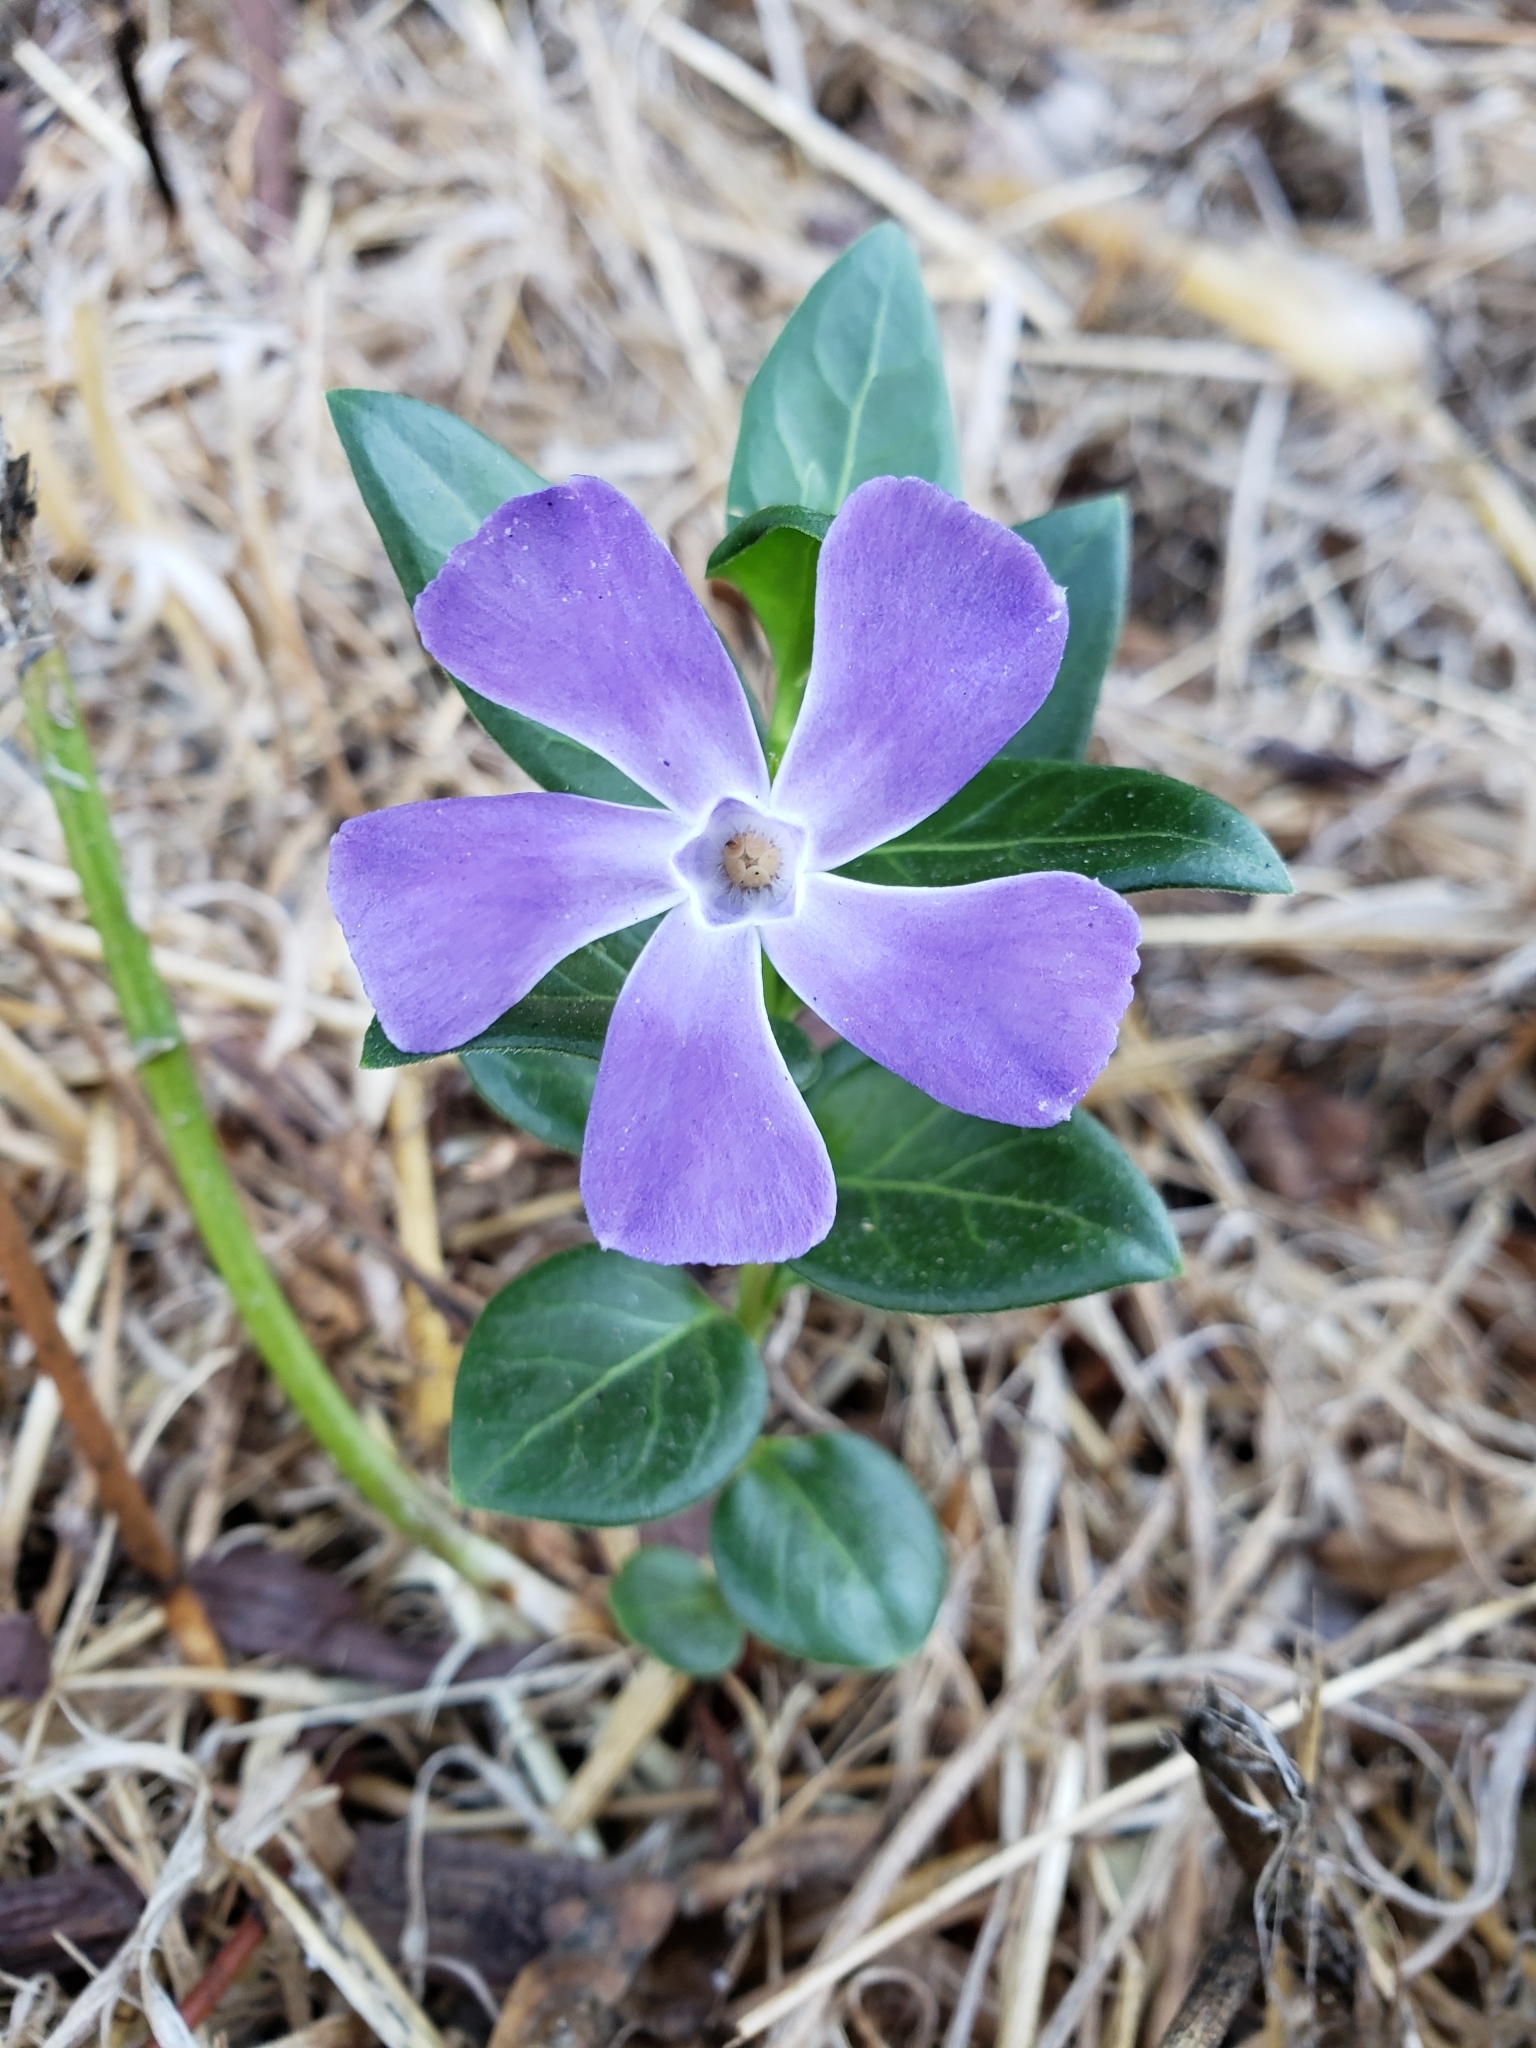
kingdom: Plantae
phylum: Tracheophyta
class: Magnoliopsida
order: Gentianales
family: Apocynaceae
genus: Vinca
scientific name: Vinca major
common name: Greater periwinkle
